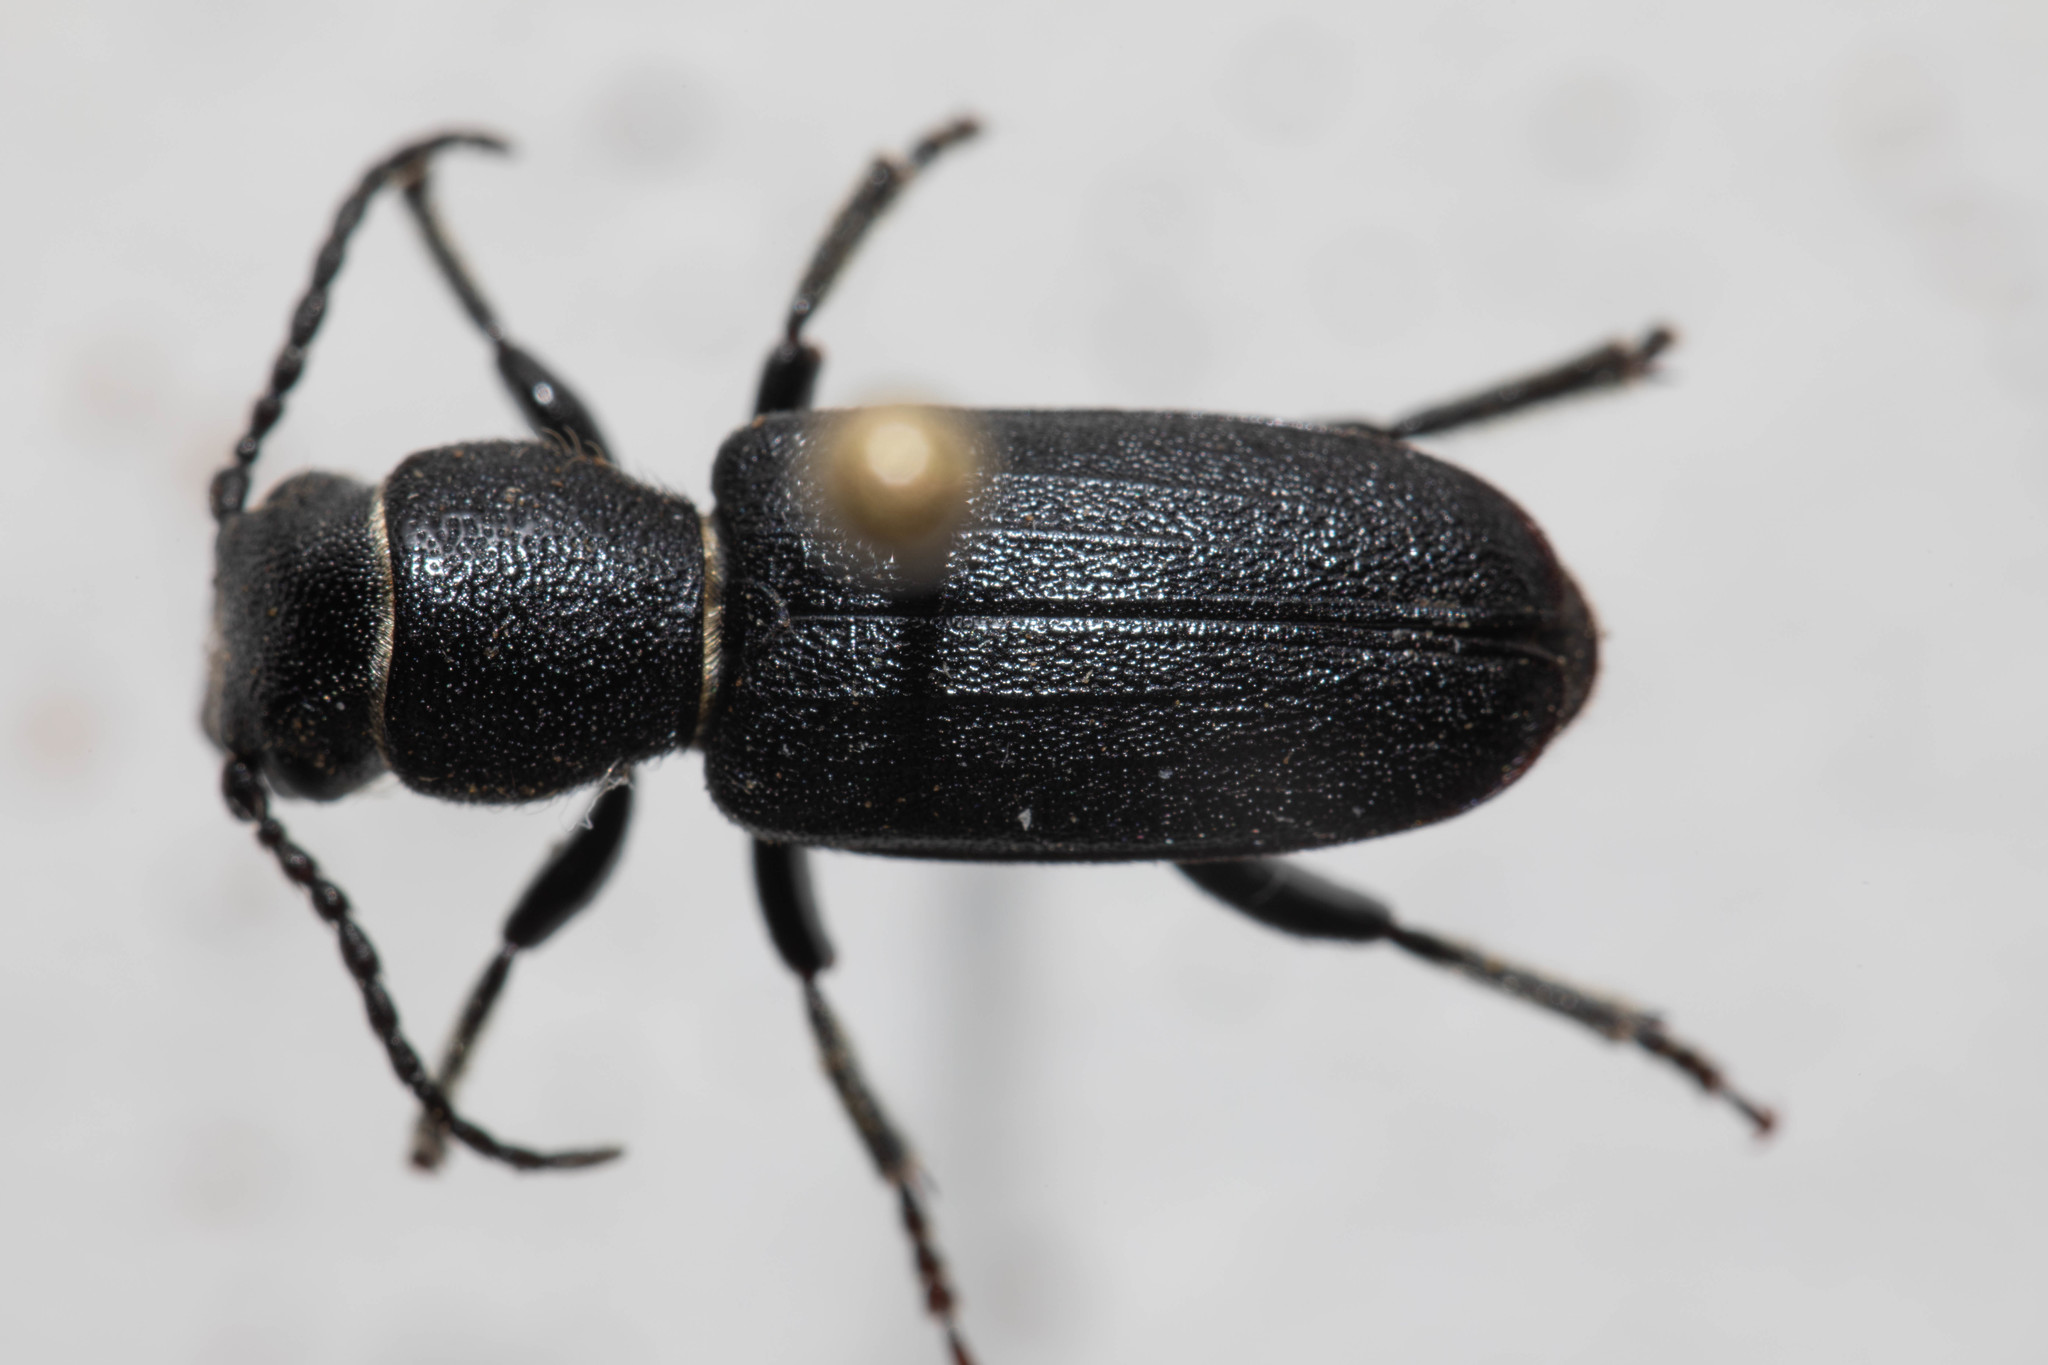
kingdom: Animalia
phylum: Arthropoda
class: Insecta
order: Coleoptera
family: Cerambycidae
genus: Neospondylis
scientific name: Neospondylis upiformis
